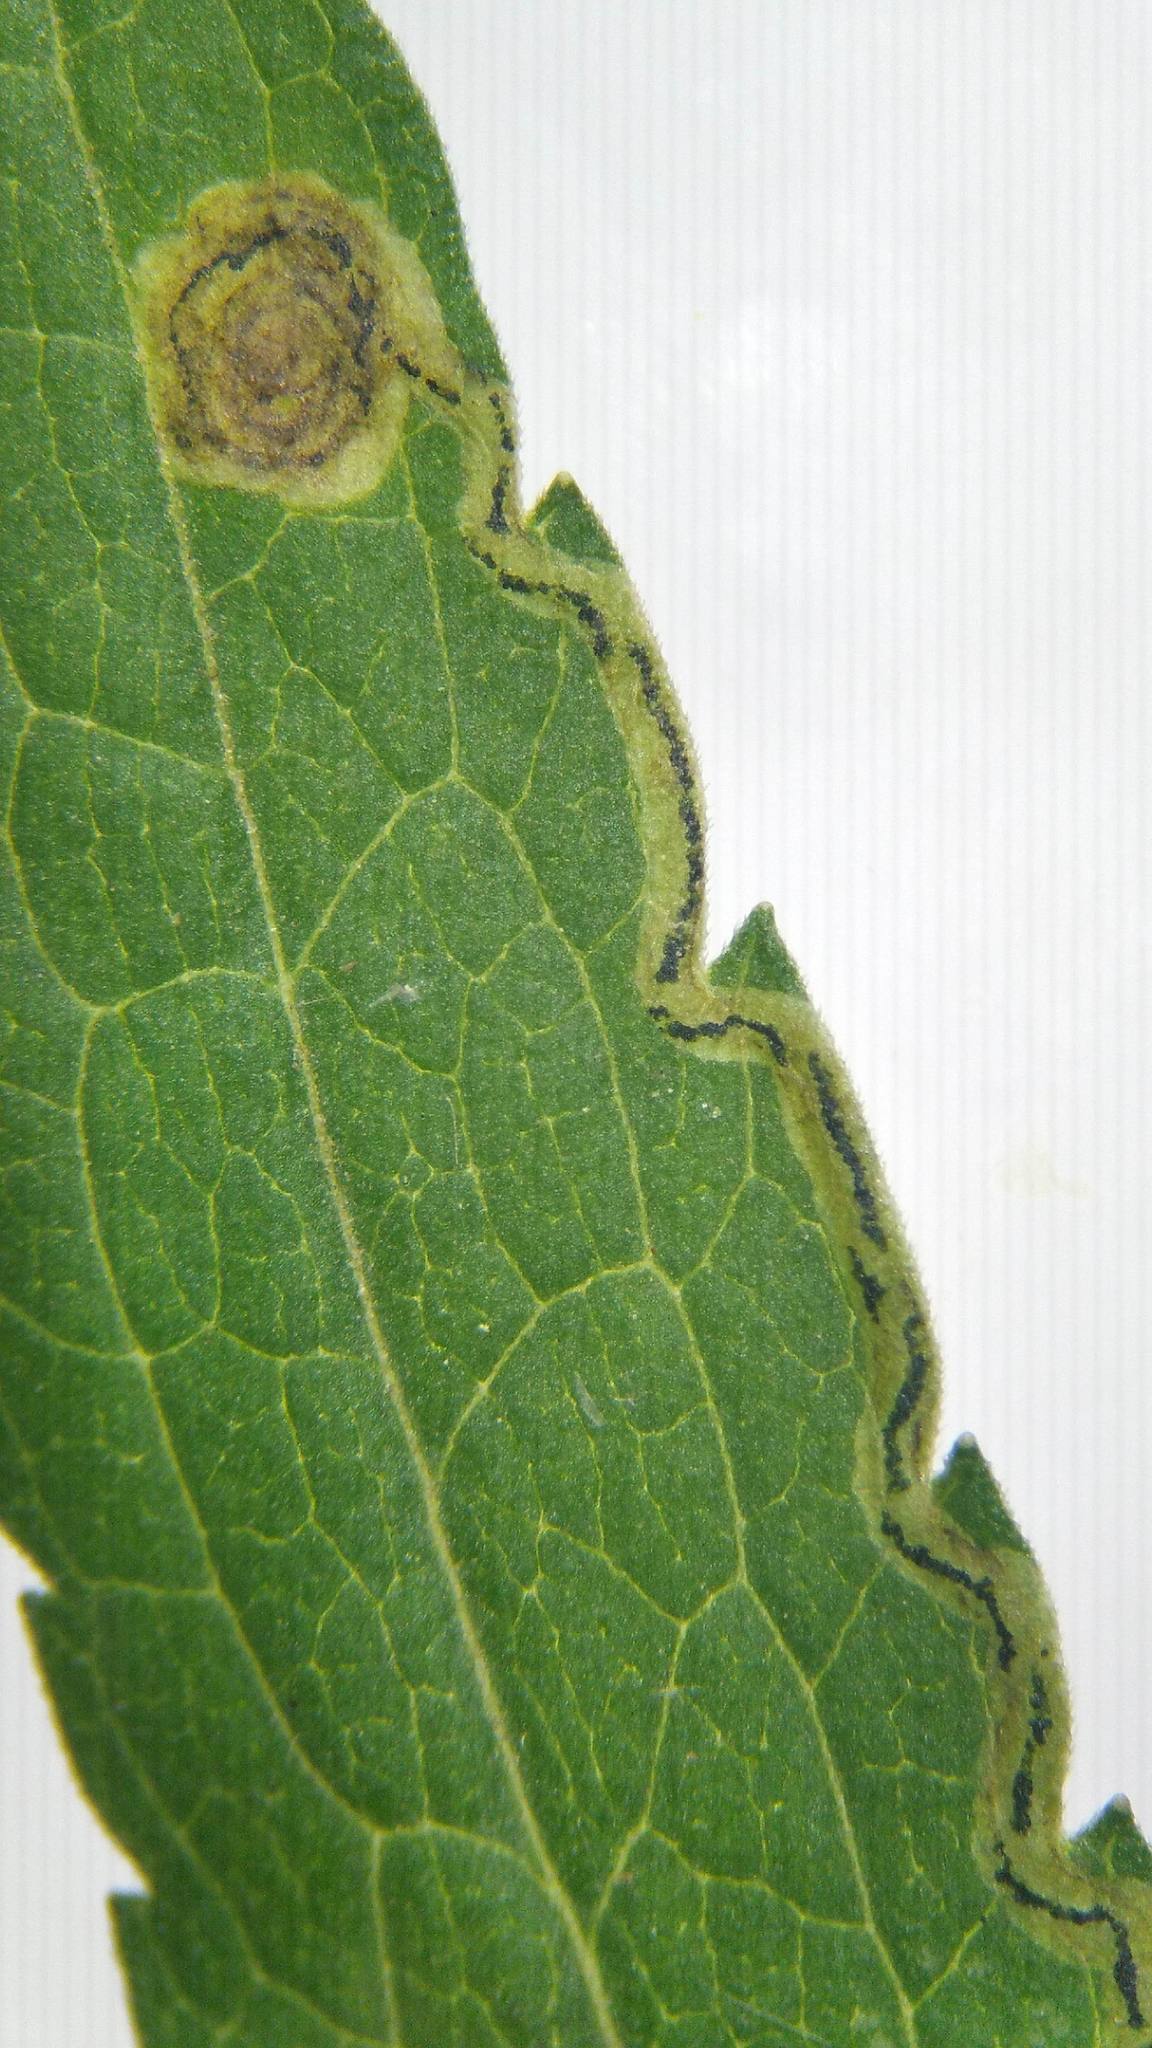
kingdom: Animalia
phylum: Arthropoda
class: Insecta
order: Diptera
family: Agromyzidae
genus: Liriomyza
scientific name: Liriomyza eupatorii
